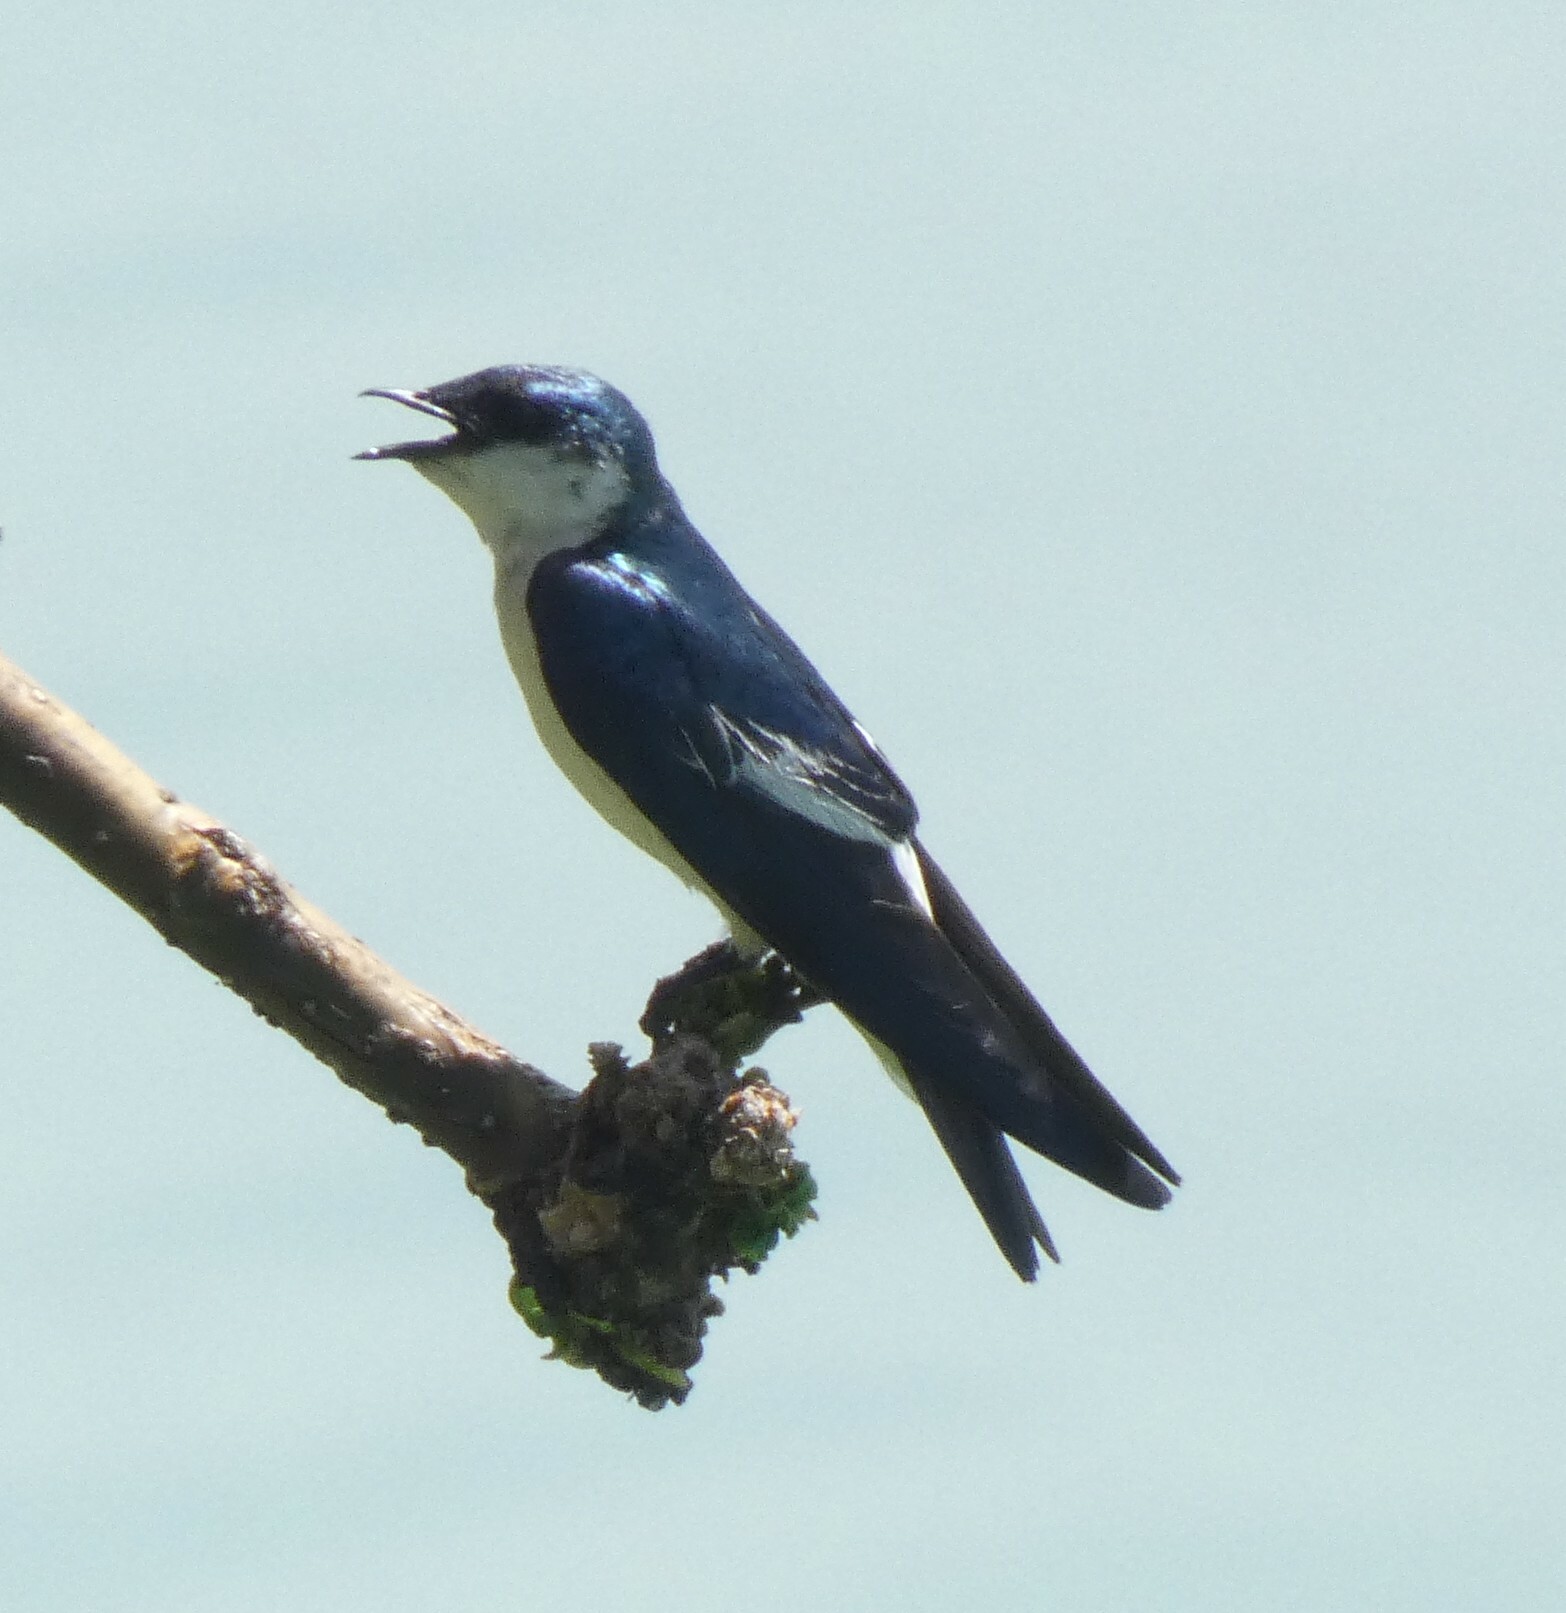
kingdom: Animalia
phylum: Chordata
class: Aves
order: Passeriformes
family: Hirundinidae
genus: Tachycineta
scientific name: Tachycineta albiventer
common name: White-winged swallow
